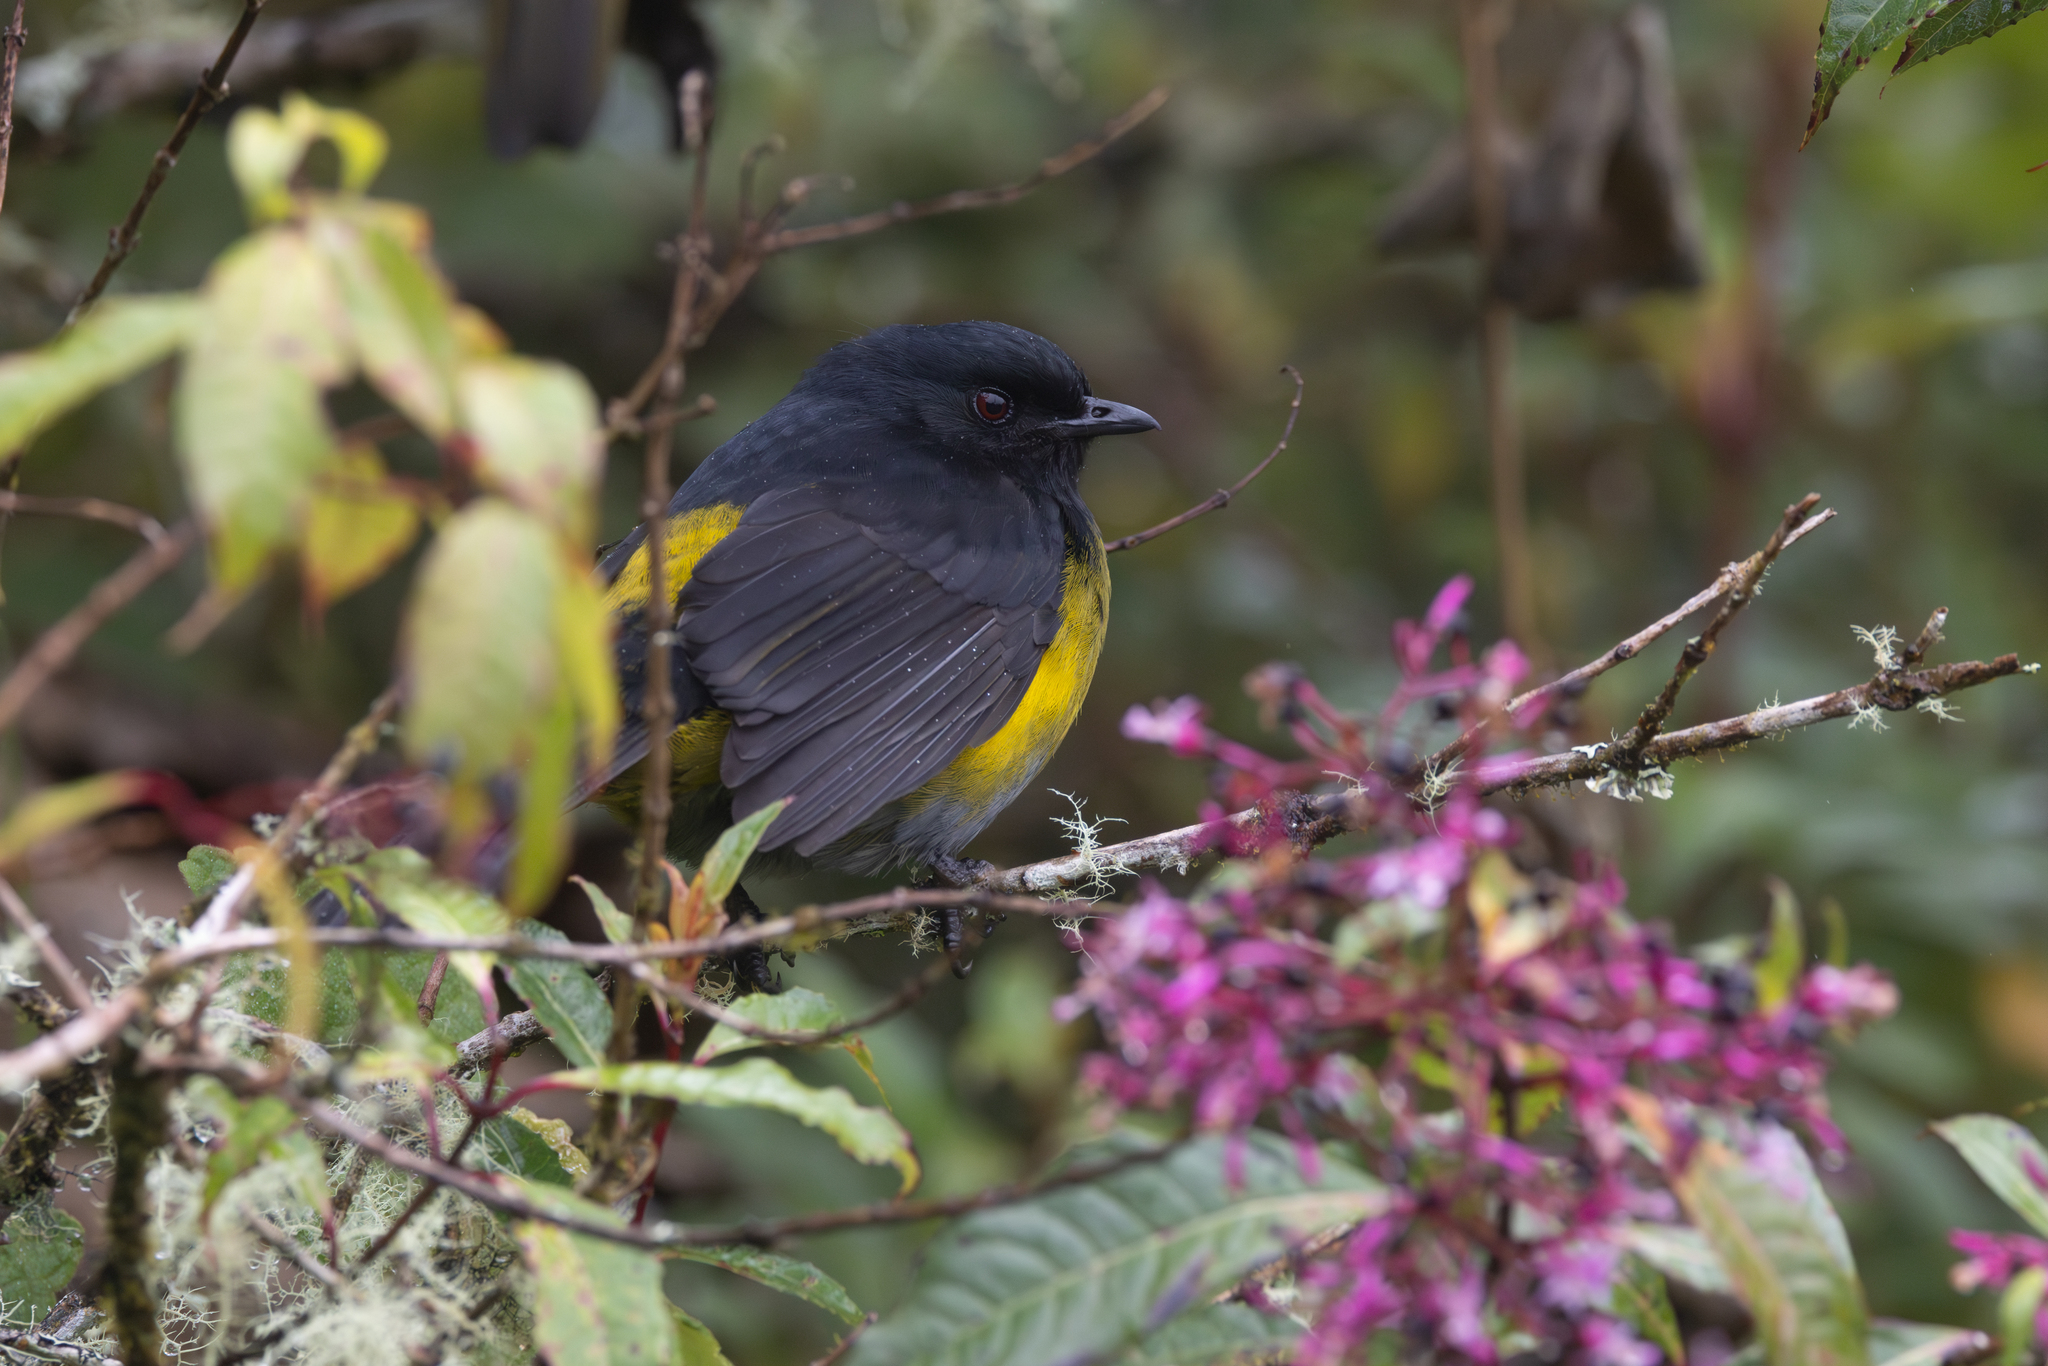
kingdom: Animalia
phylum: Chordata
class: Aves
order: Passeriformes
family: Ptilogonatidae
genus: Phainoptila
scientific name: Phainoptila melanoxantha
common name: Black-and-yellow phainoptila
